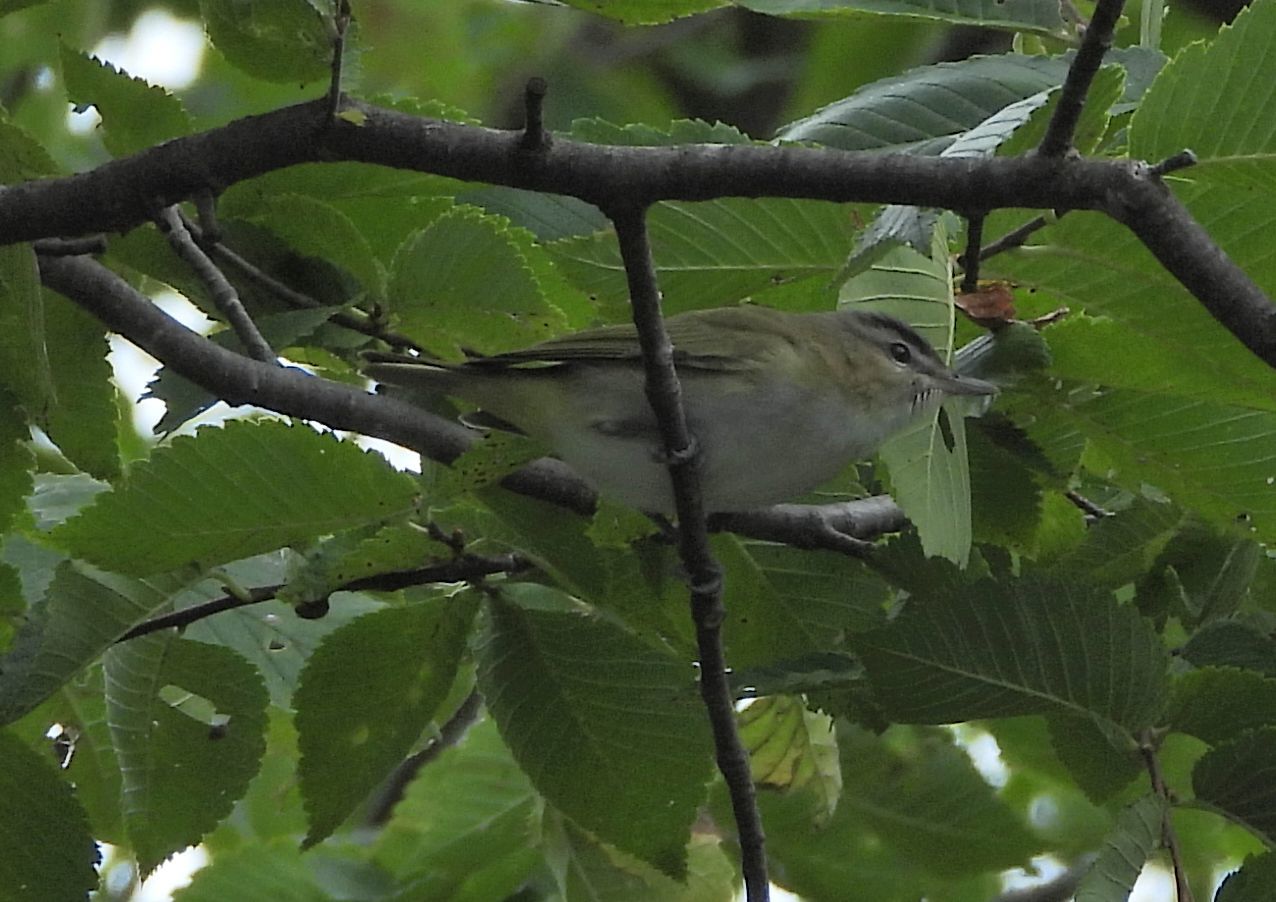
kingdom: Animalia
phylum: Chordata
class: Aves
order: Passeriformes
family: Vireonidae
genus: Vireo
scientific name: Vireo olivaceus
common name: Red-eyed vireo
